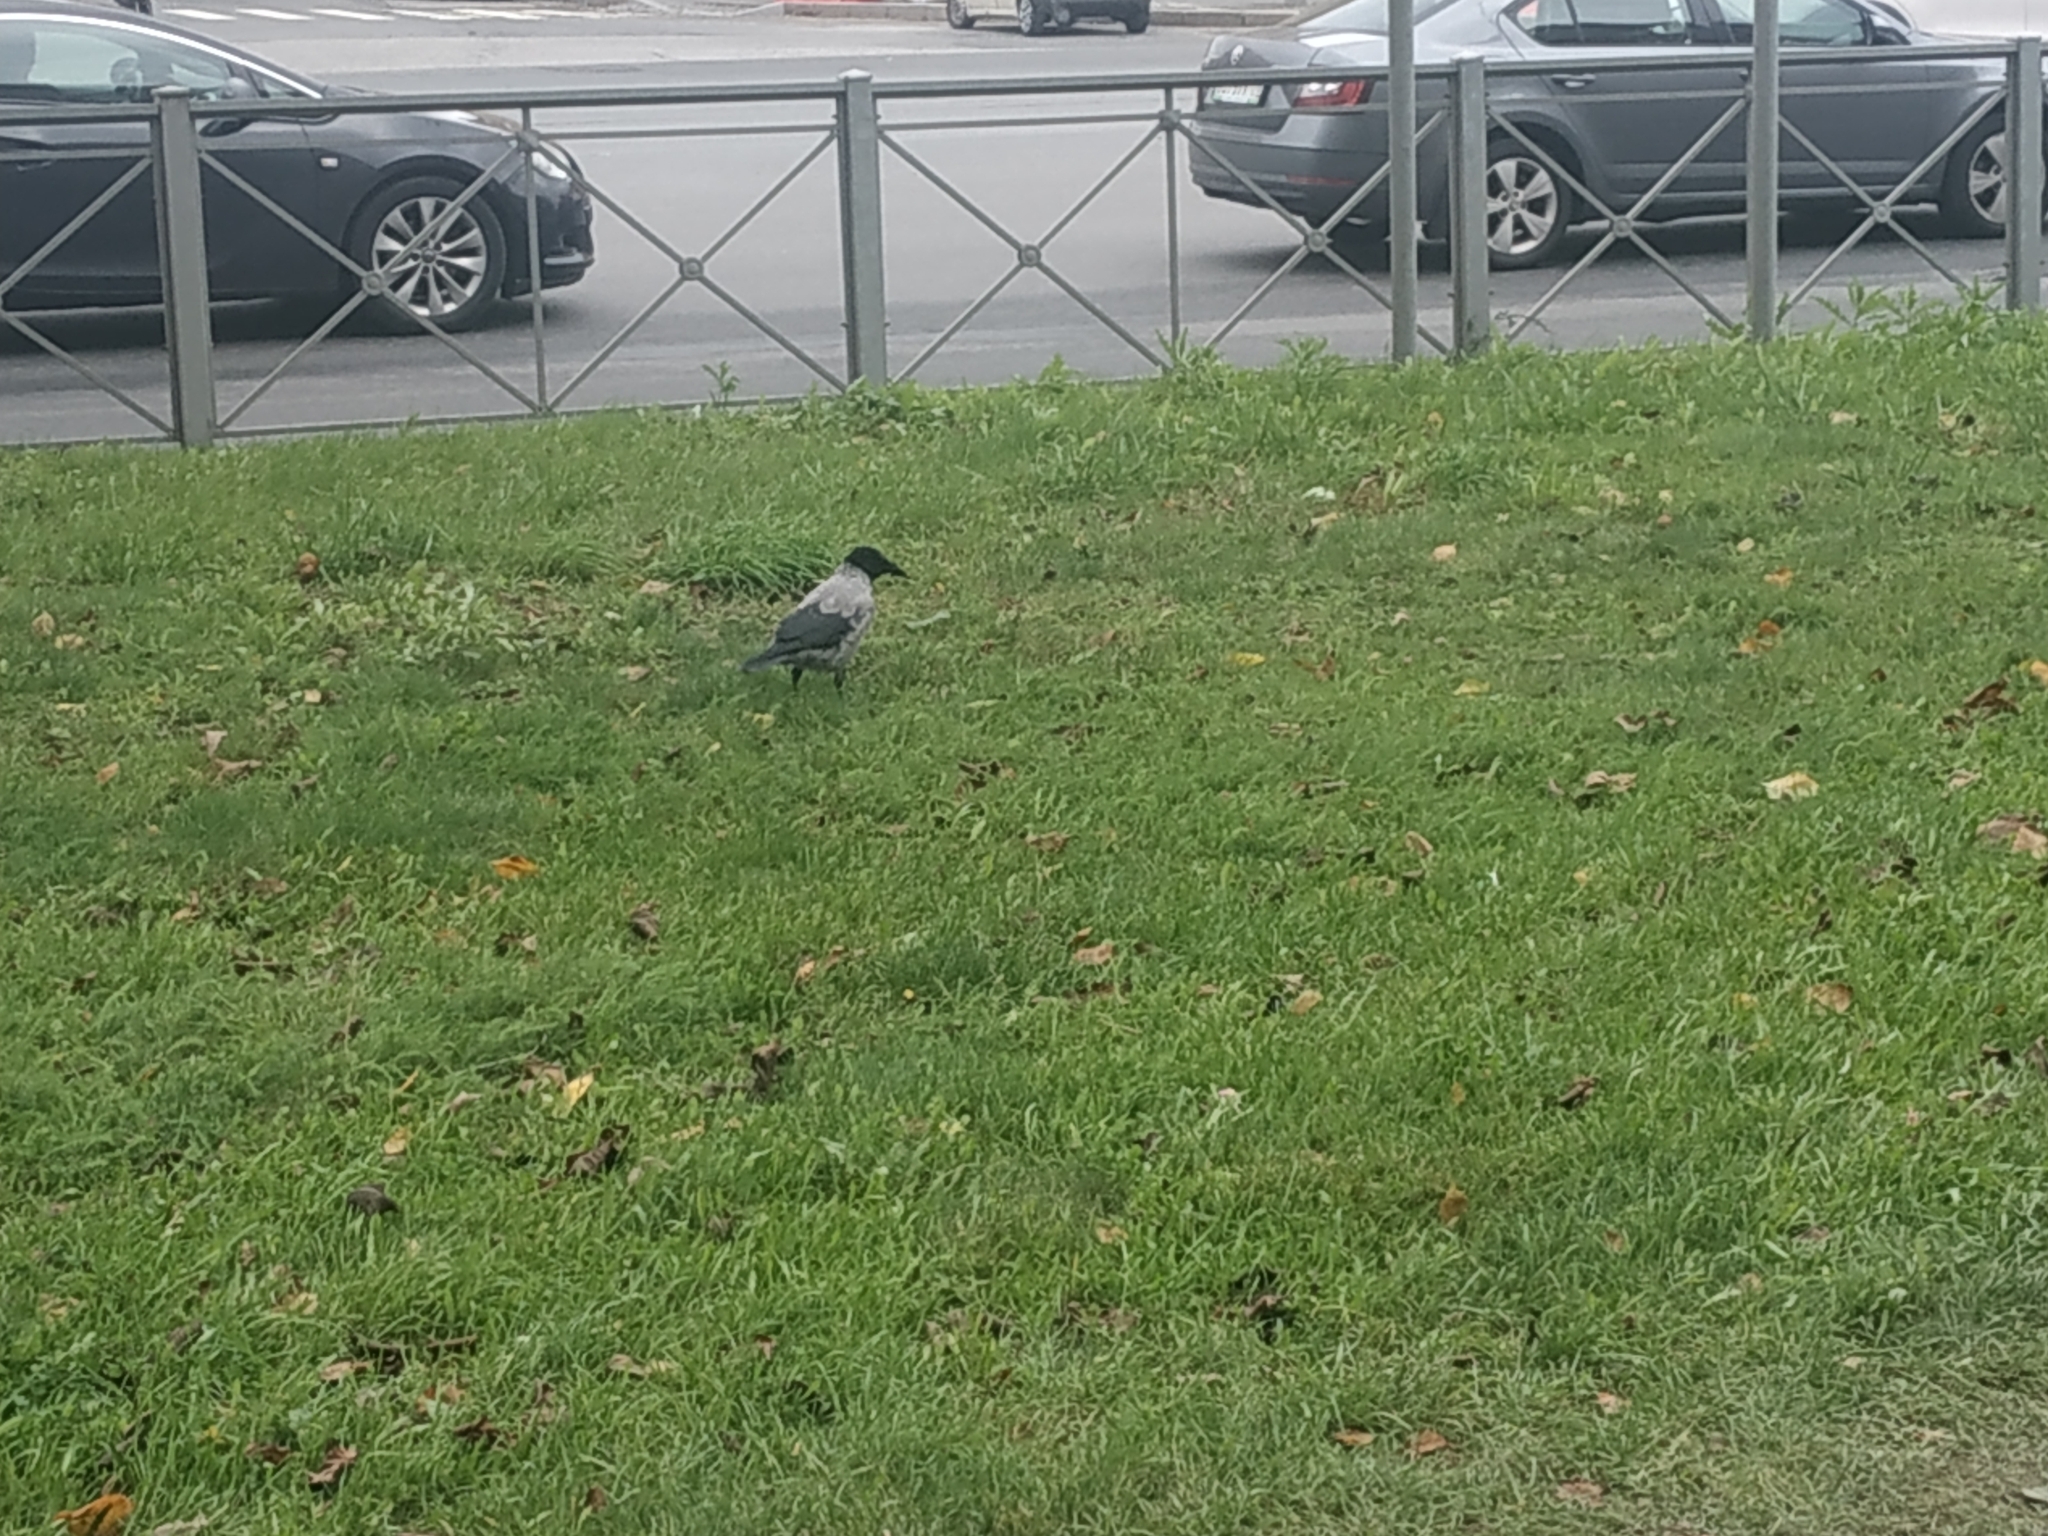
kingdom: Animalia
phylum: Chordata
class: Aves
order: Passeriformes
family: Corvidae
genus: Corvus
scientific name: Corvus cornix
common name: Hooded crow
